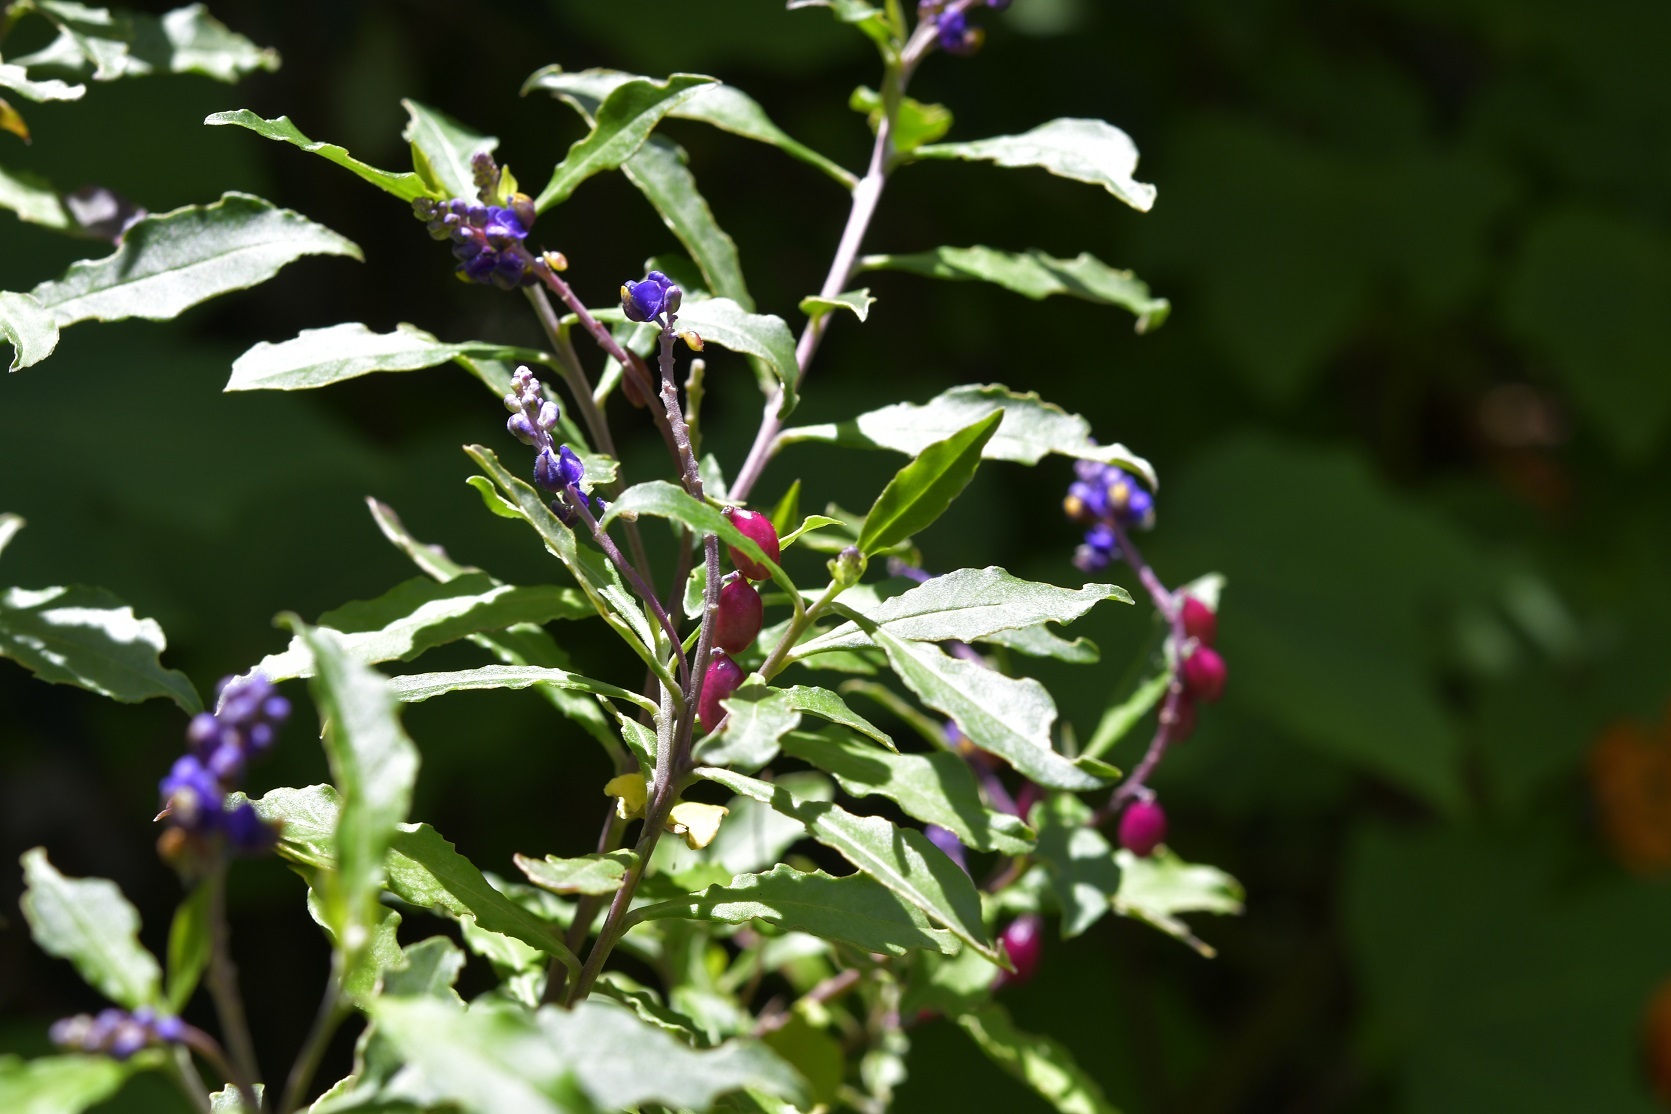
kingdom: Plantae
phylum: Tracheophyta
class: Magnoliopsida
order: Fabales
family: Polygalaceae
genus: Monnina
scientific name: Monnina xalapensis
